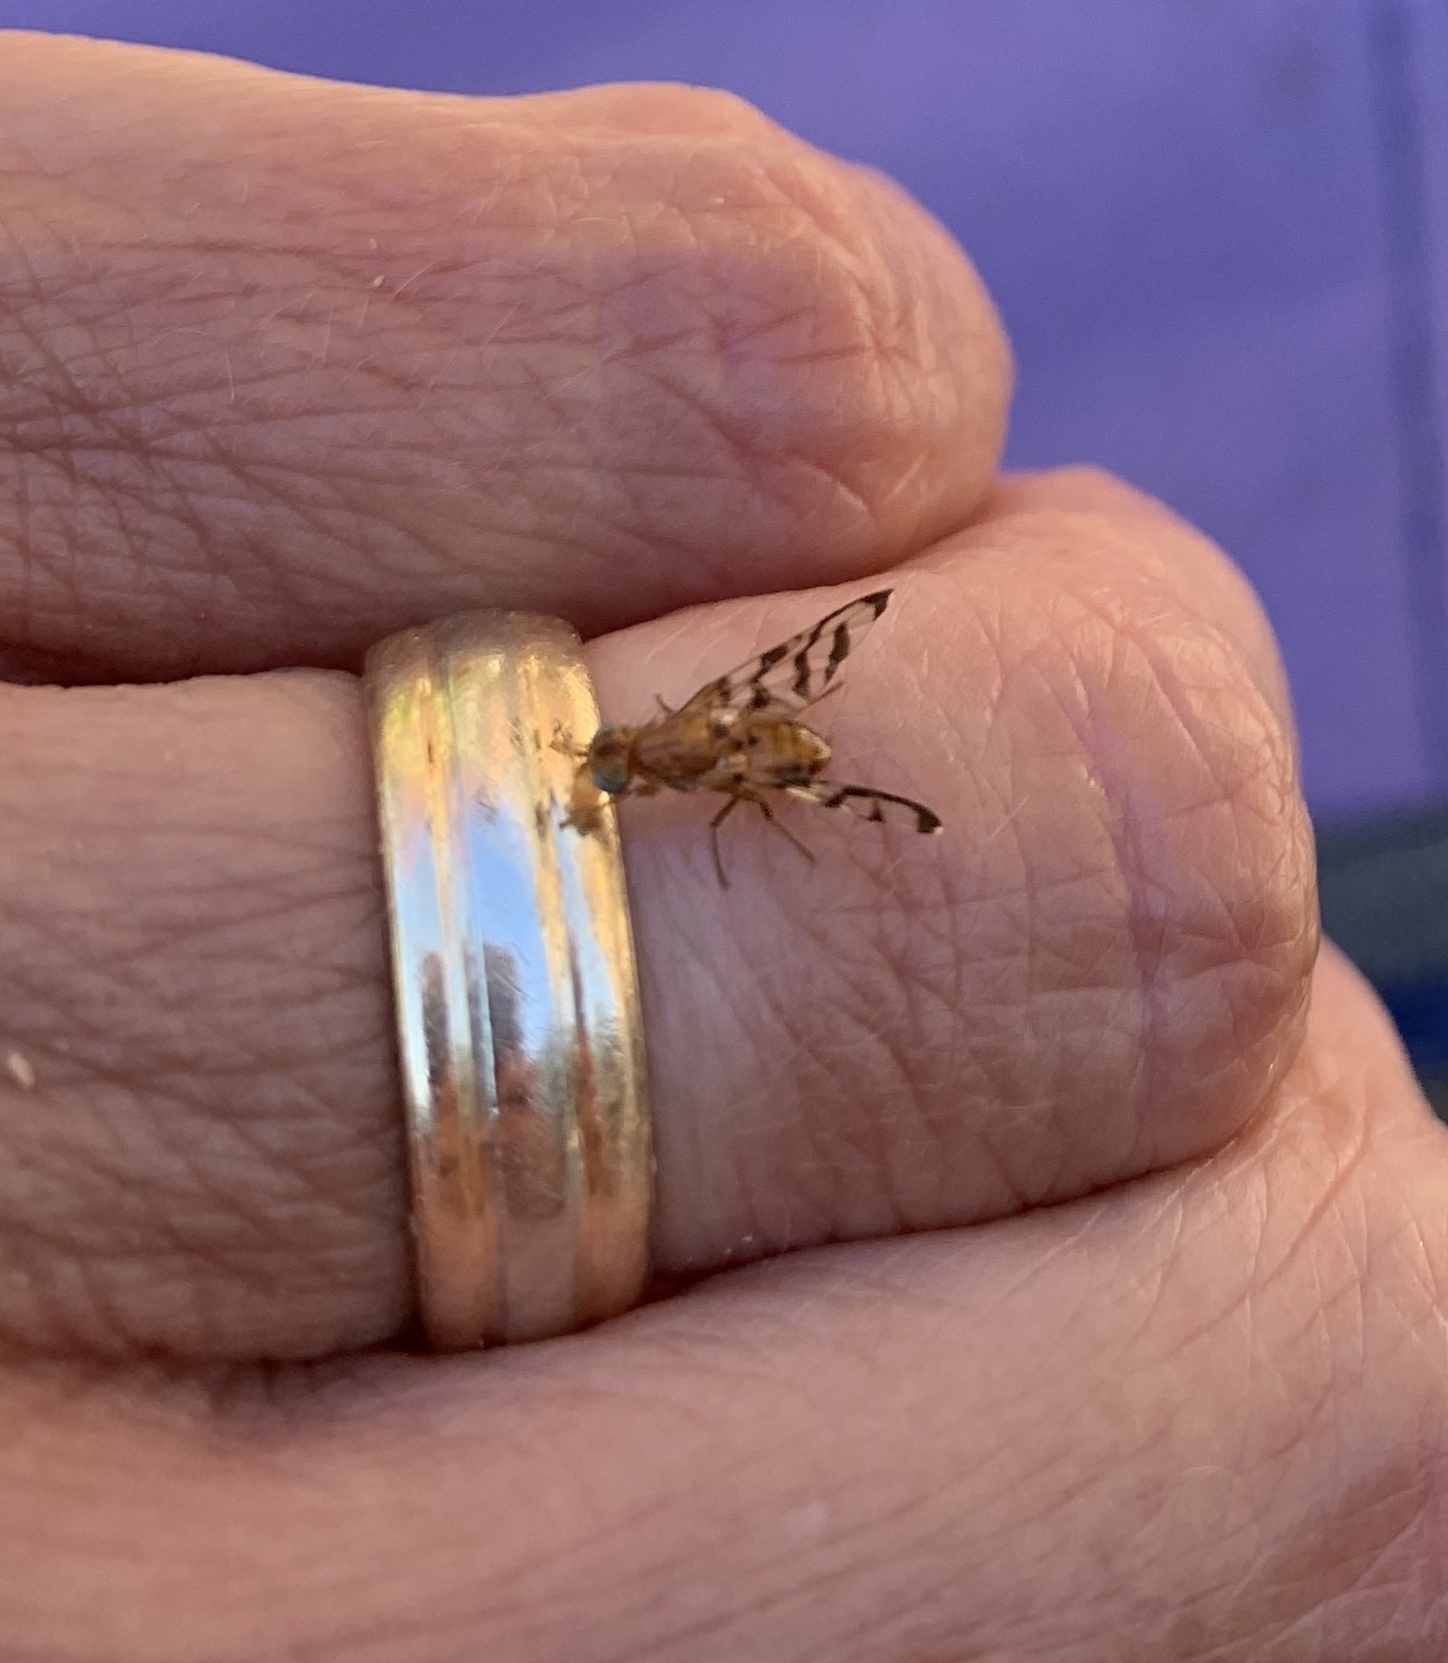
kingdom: Animalia
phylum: Arthropoda
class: Insecta
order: Diptera
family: Tephritidae
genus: Euphranta
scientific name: Euphranta canadensis
